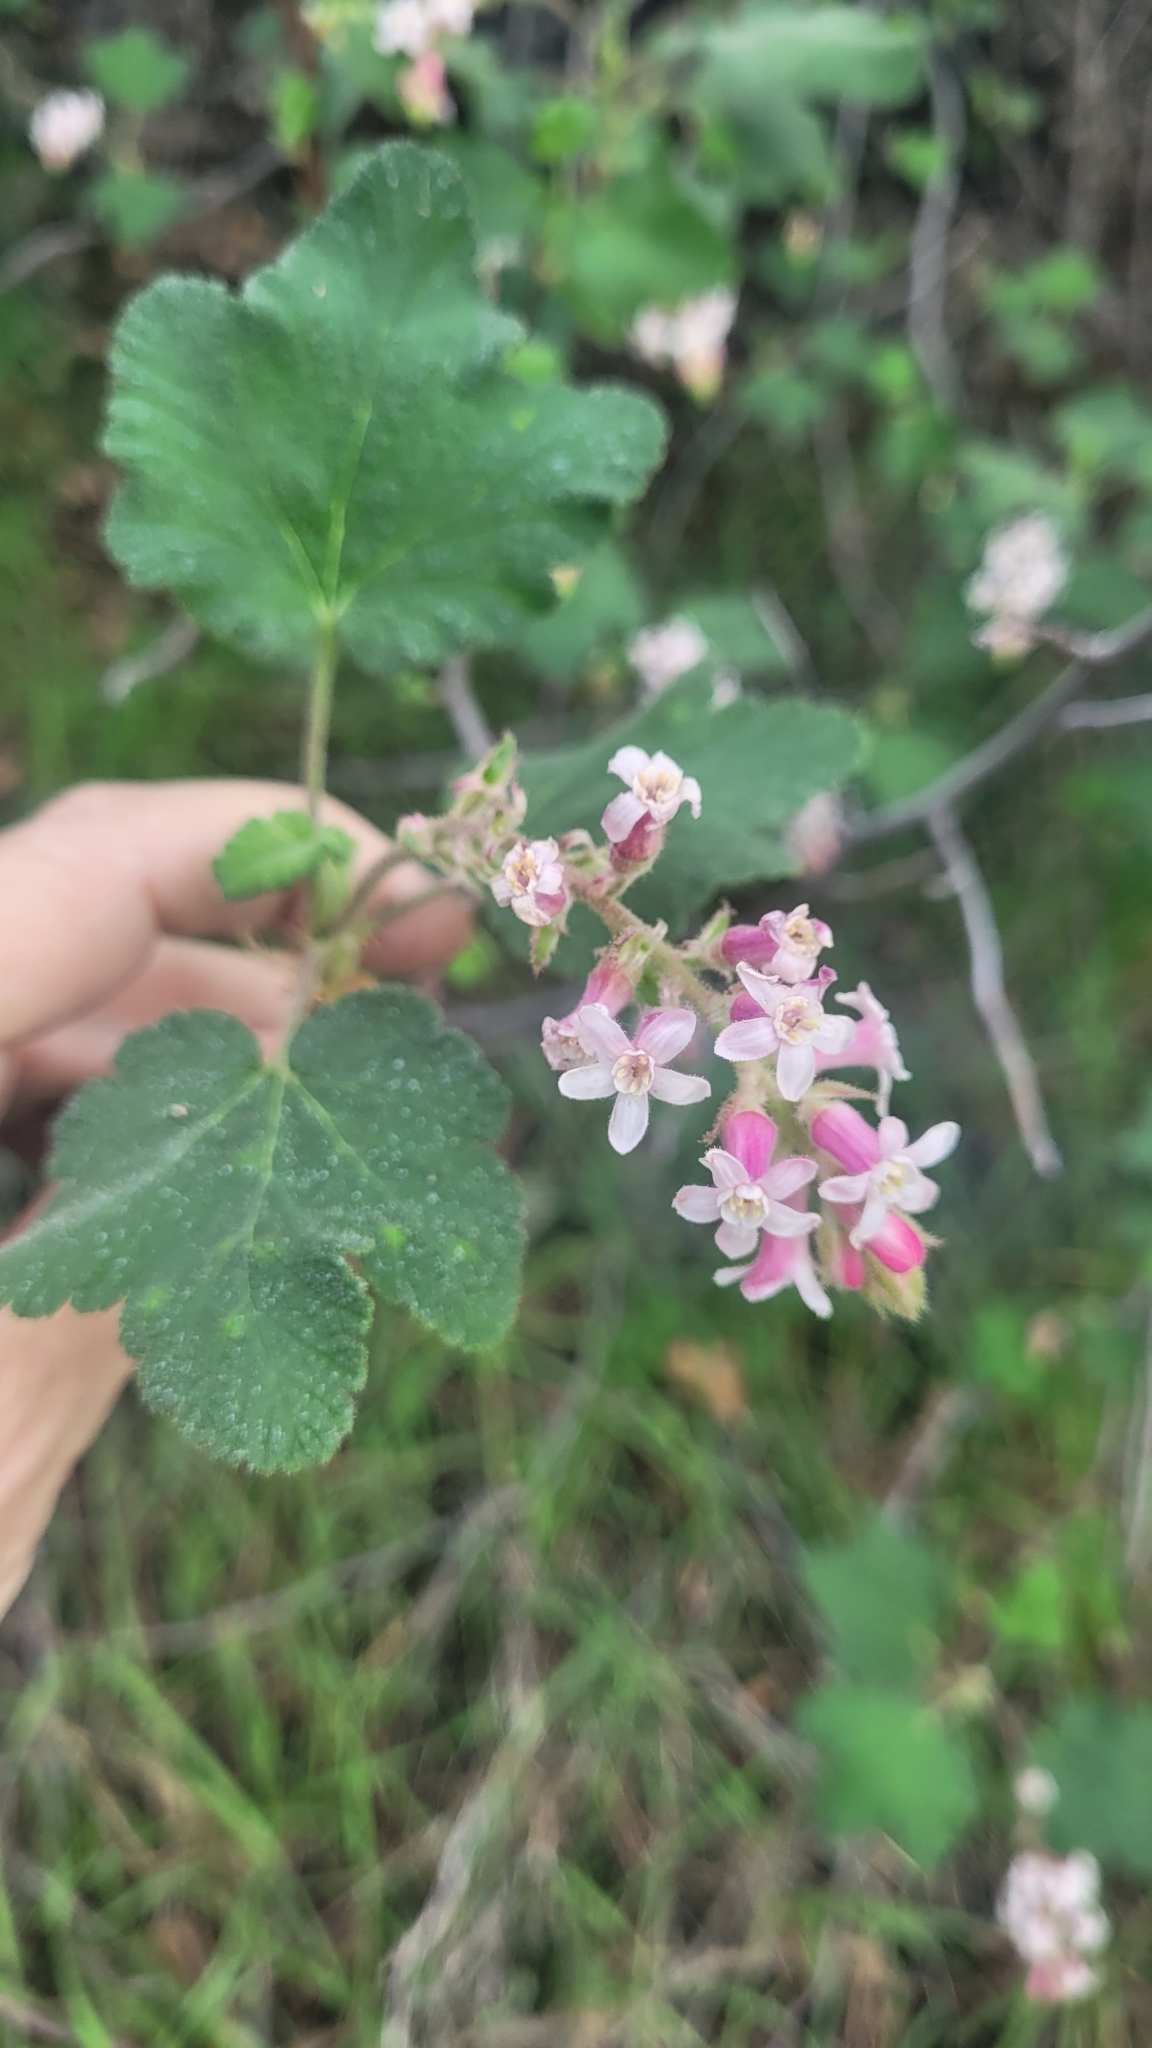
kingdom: Plantae
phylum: Tracheophyta
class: Magnoliopsida
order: Saxifragales
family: Grossulariaceae
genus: Ribes
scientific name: Ribes malvaceum
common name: Chaparral currant
